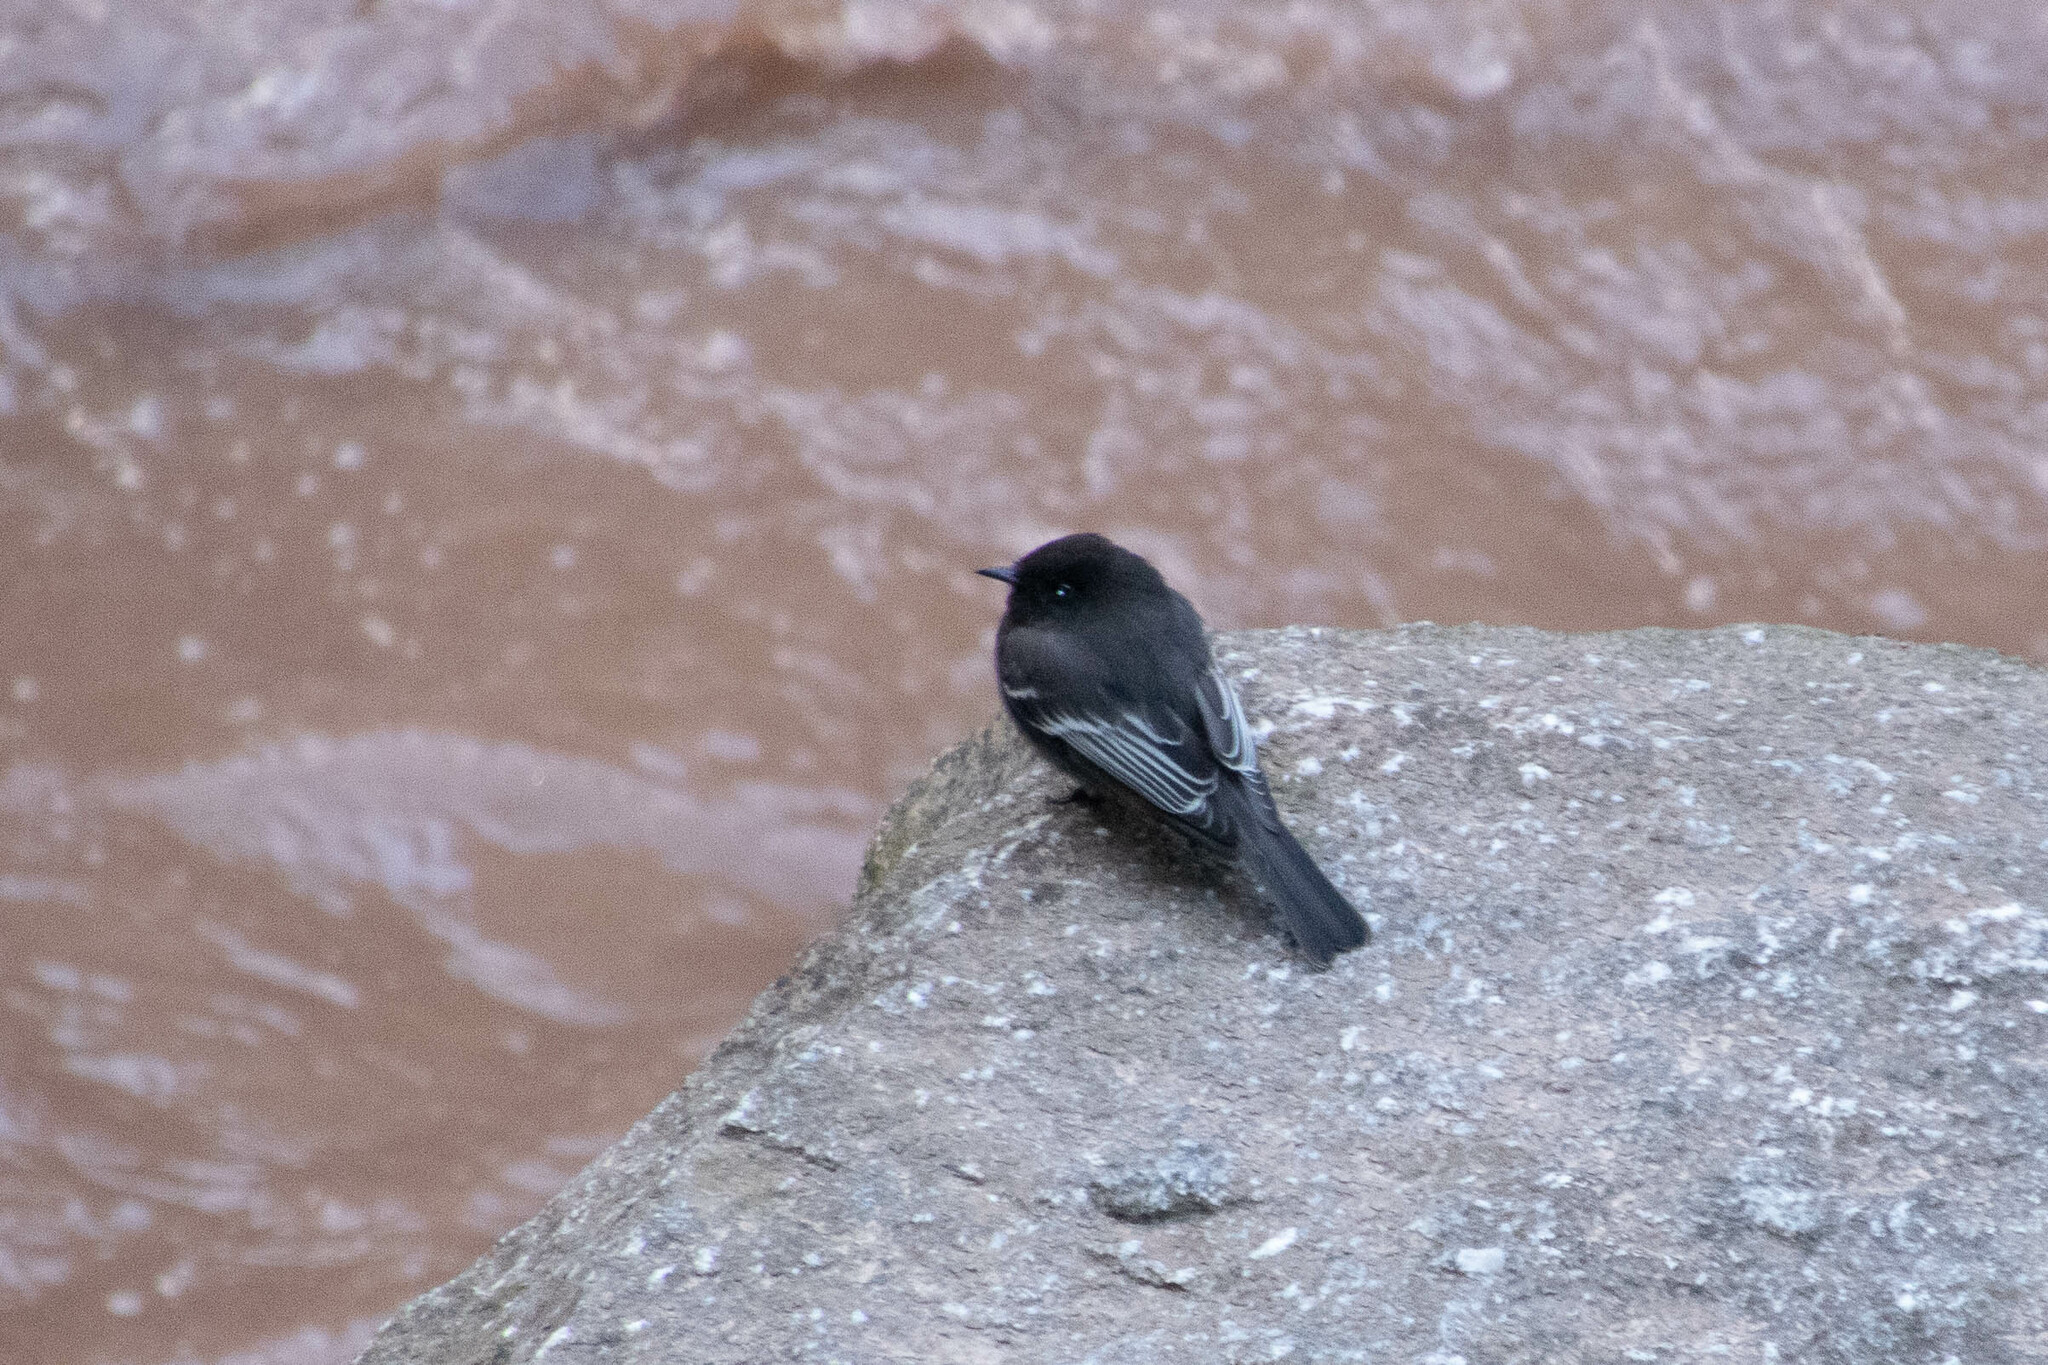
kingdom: Animalia
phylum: Chordata
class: Aves
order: Passeriformes
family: Tyrannidae
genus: Sayornis
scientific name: Sayornis nigricans
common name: Black phoebe
